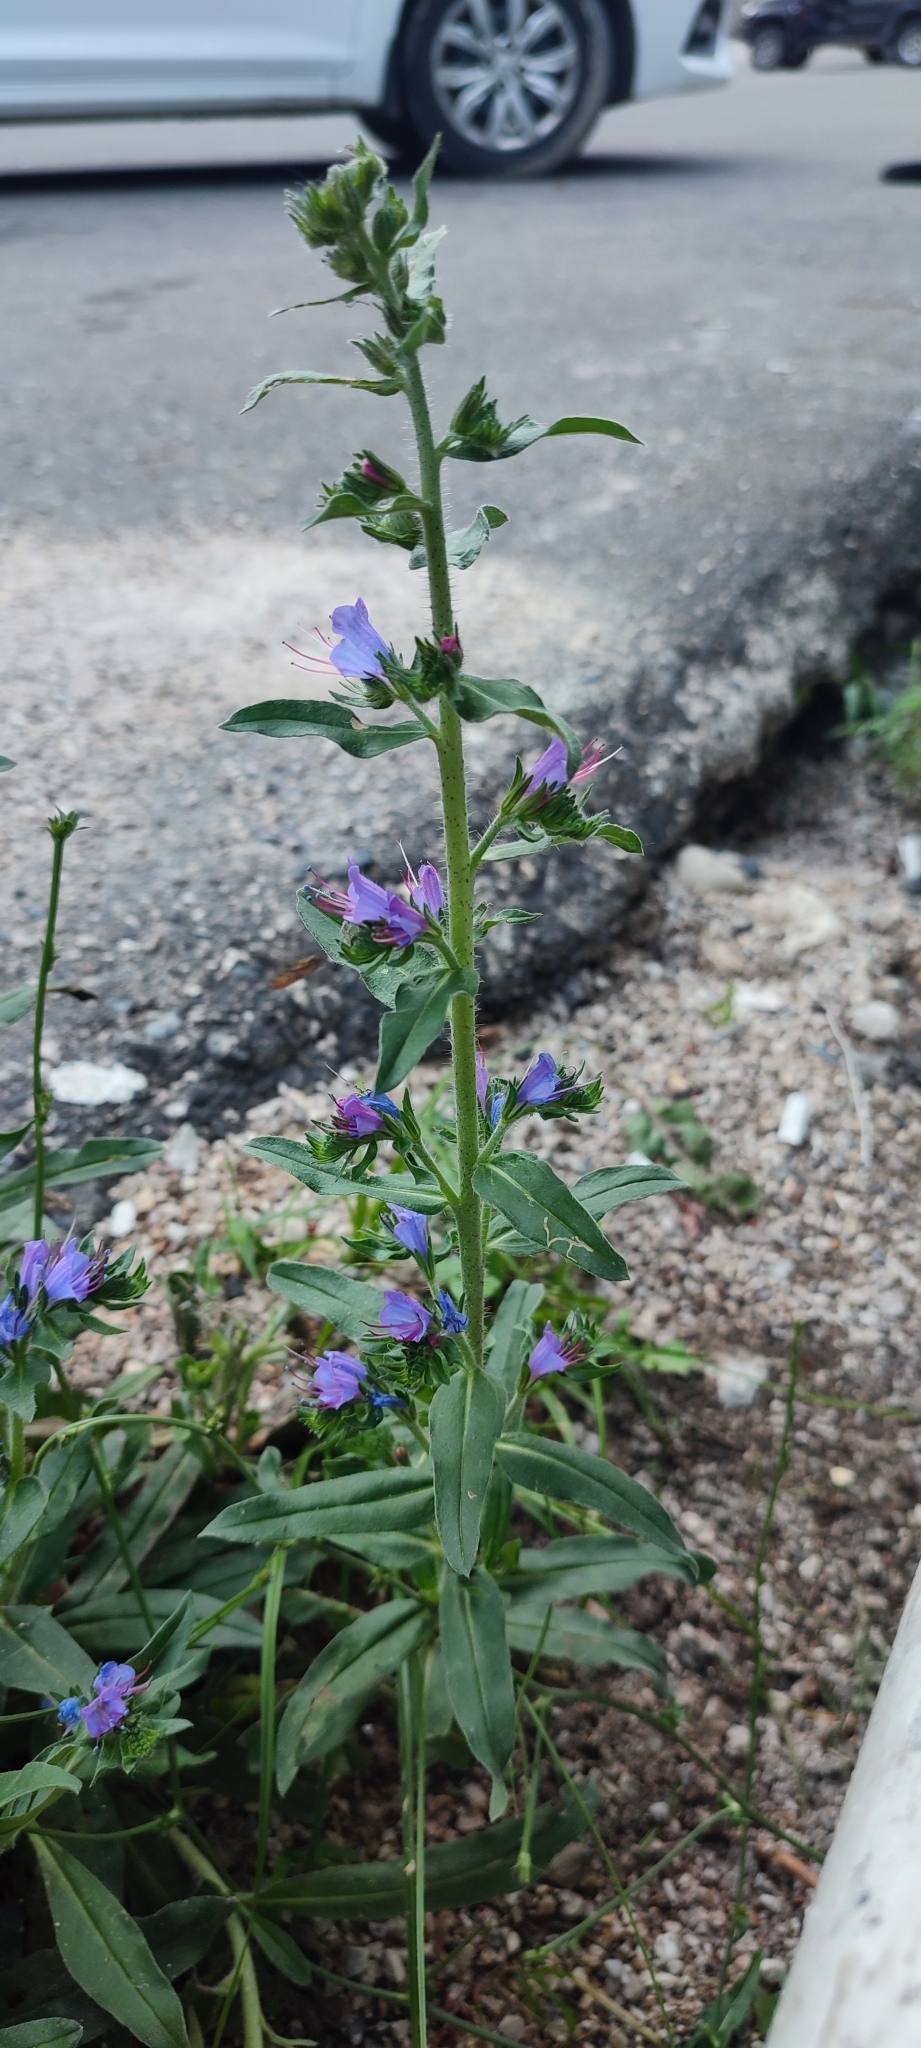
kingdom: Plantae
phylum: Tracheophyta
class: Magnoliopsida
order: Boraginales
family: Boraginaceae
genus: Echium
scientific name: Echium vulgare
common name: Common viper's bugloss
